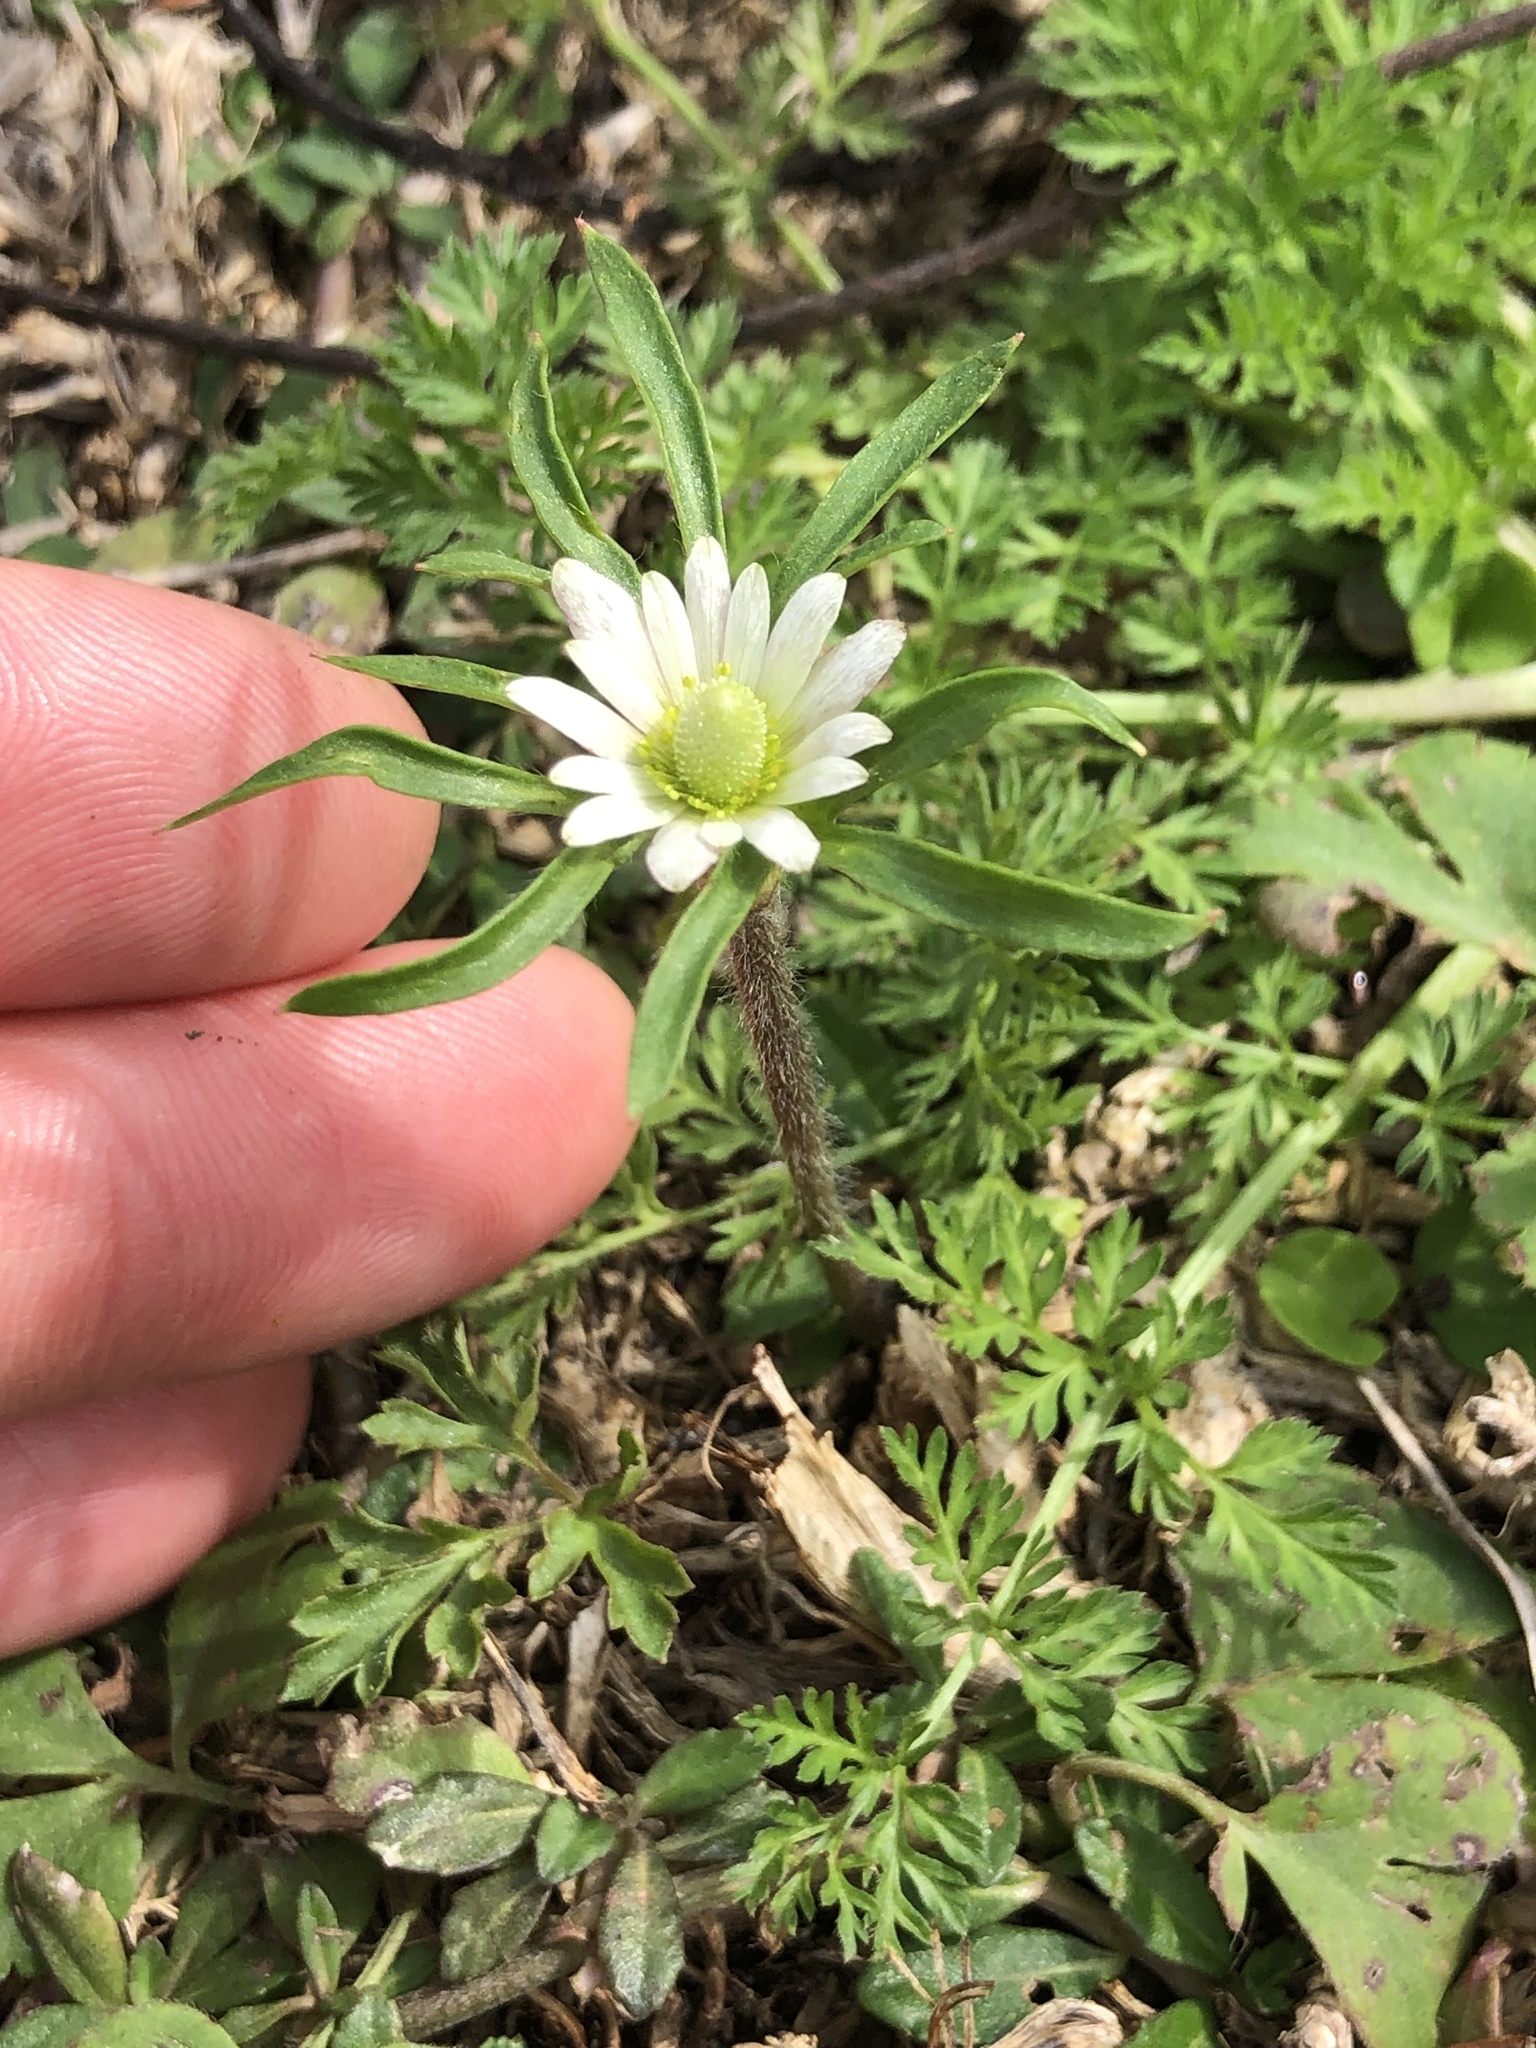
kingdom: Plantae
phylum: Tracheophyta
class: Magnoliopsida
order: Ranunculales
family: Ranunculaceae
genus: Anemone
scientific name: Anemone berlandieri
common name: Ten-petal anemone
